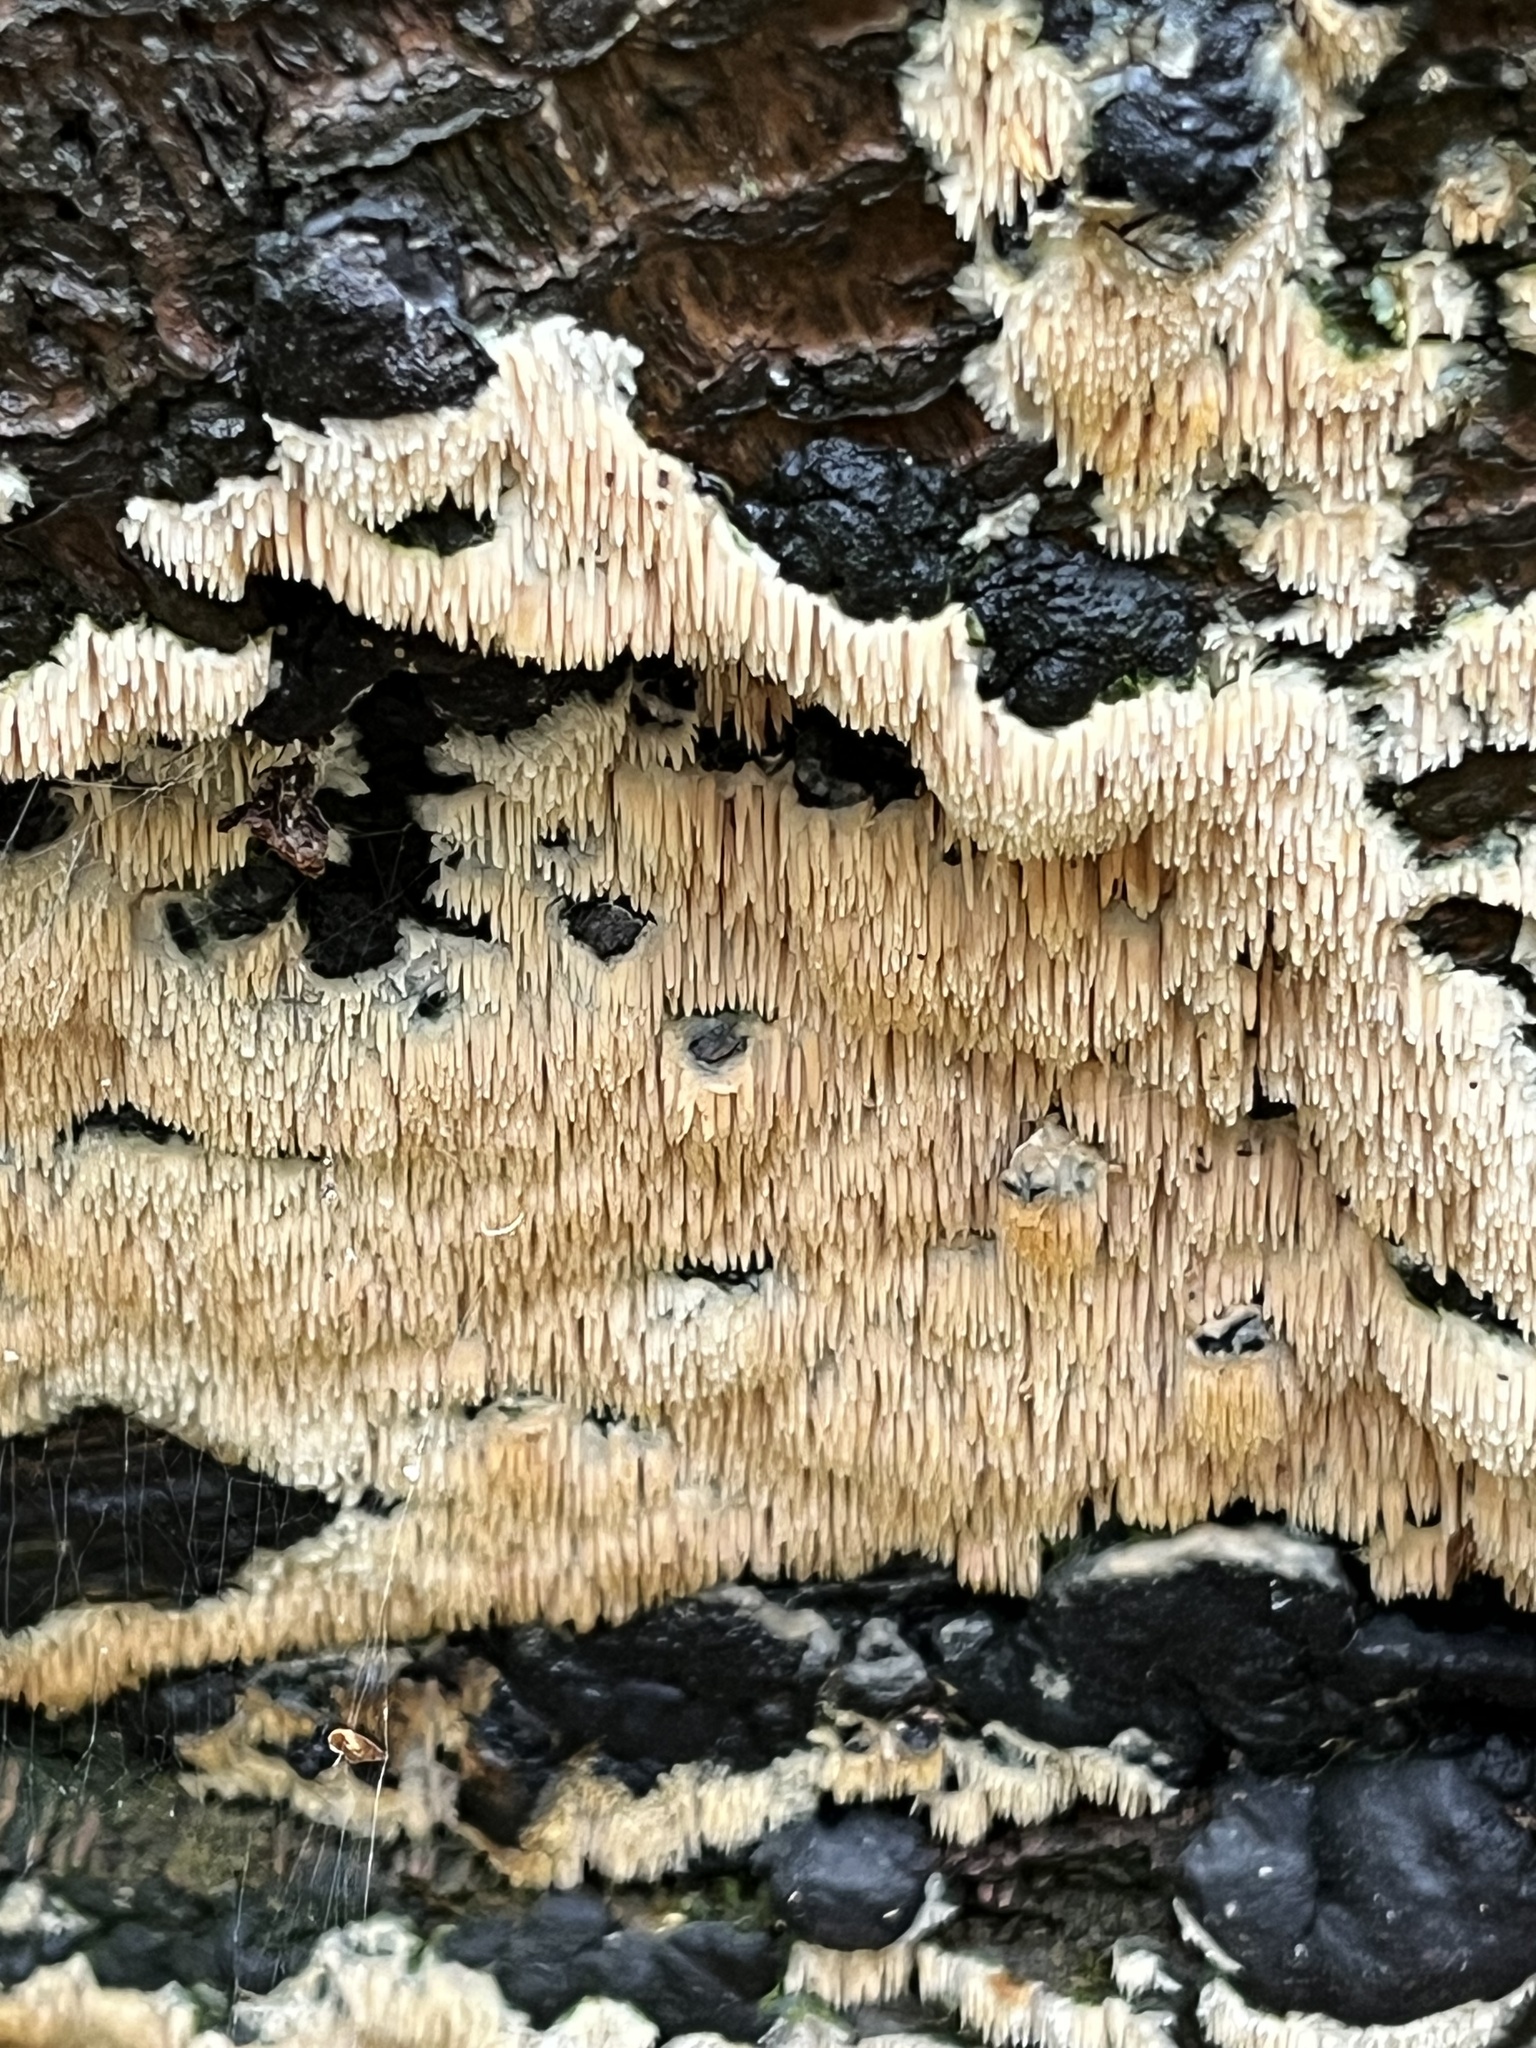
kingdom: Fungi
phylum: Basidiomycota
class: Agaricomycetes
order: Agaricales
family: Radulomycetaceae
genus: Radulomyces
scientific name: Radulomyces copelandii
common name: Asian beauty
